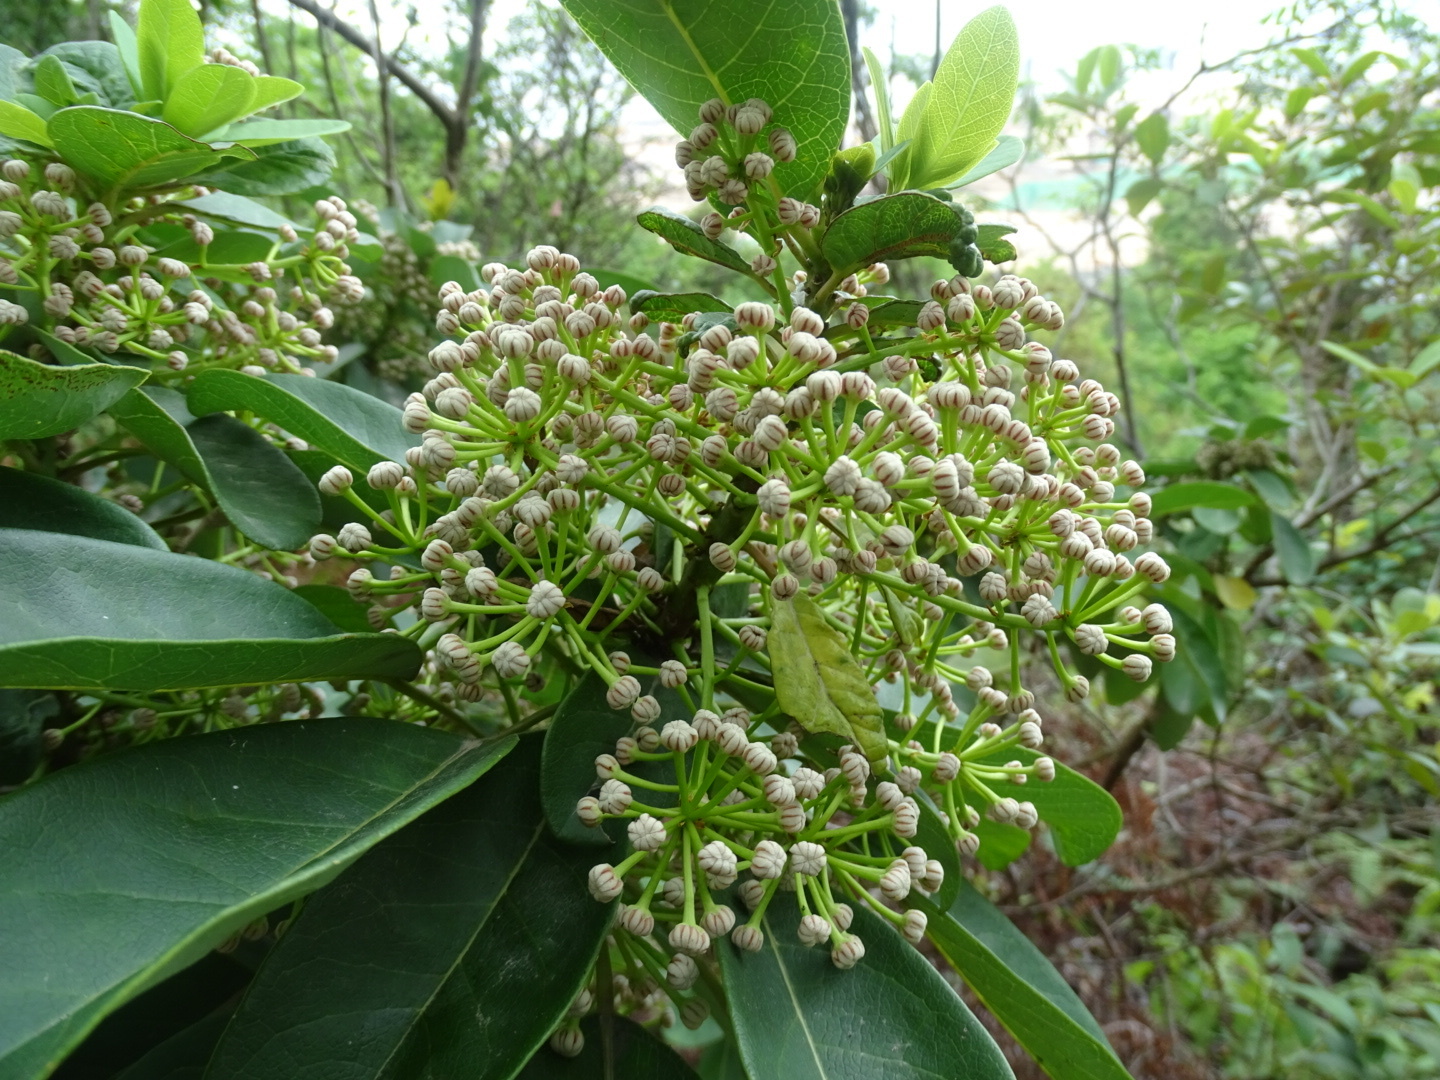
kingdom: Plantae
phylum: Tracheophyta
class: Magnoliopsida
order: Saxifragales
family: Daphniphyllaceae
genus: Daphniphyllum
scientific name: Daphniphyllum calycinum
